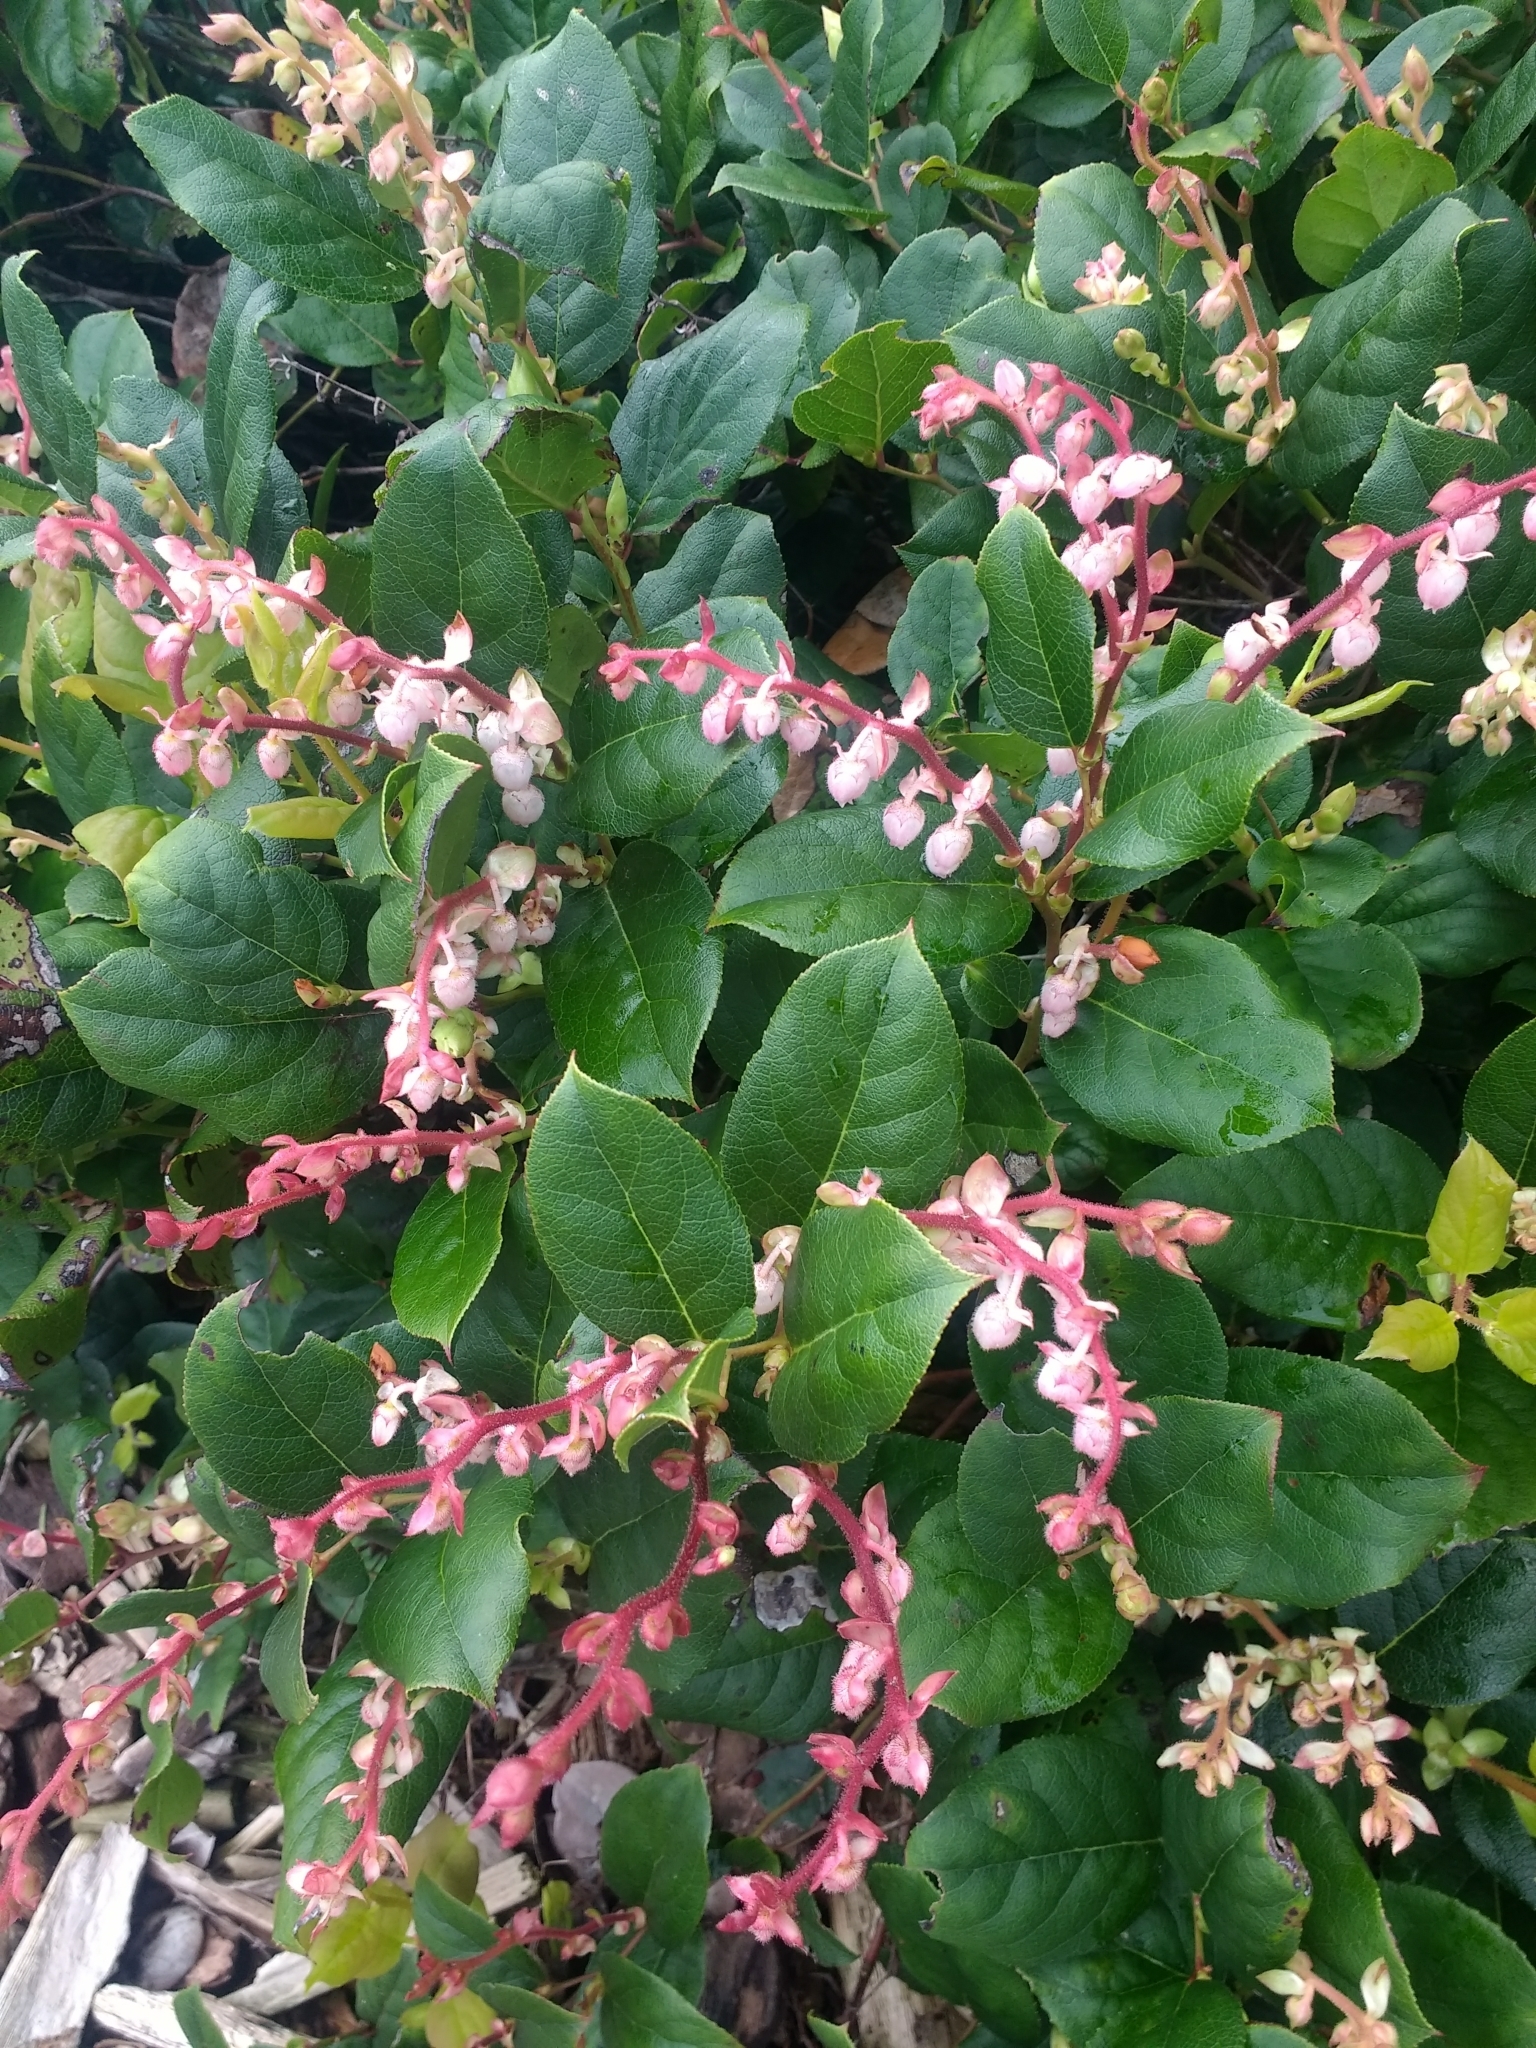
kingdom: Plantae
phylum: Tracheophyta
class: Magnoliopsida
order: Ericales
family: Ericaceae
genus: Gaultheria
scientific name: Gaultheria shallon
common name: Shallon
